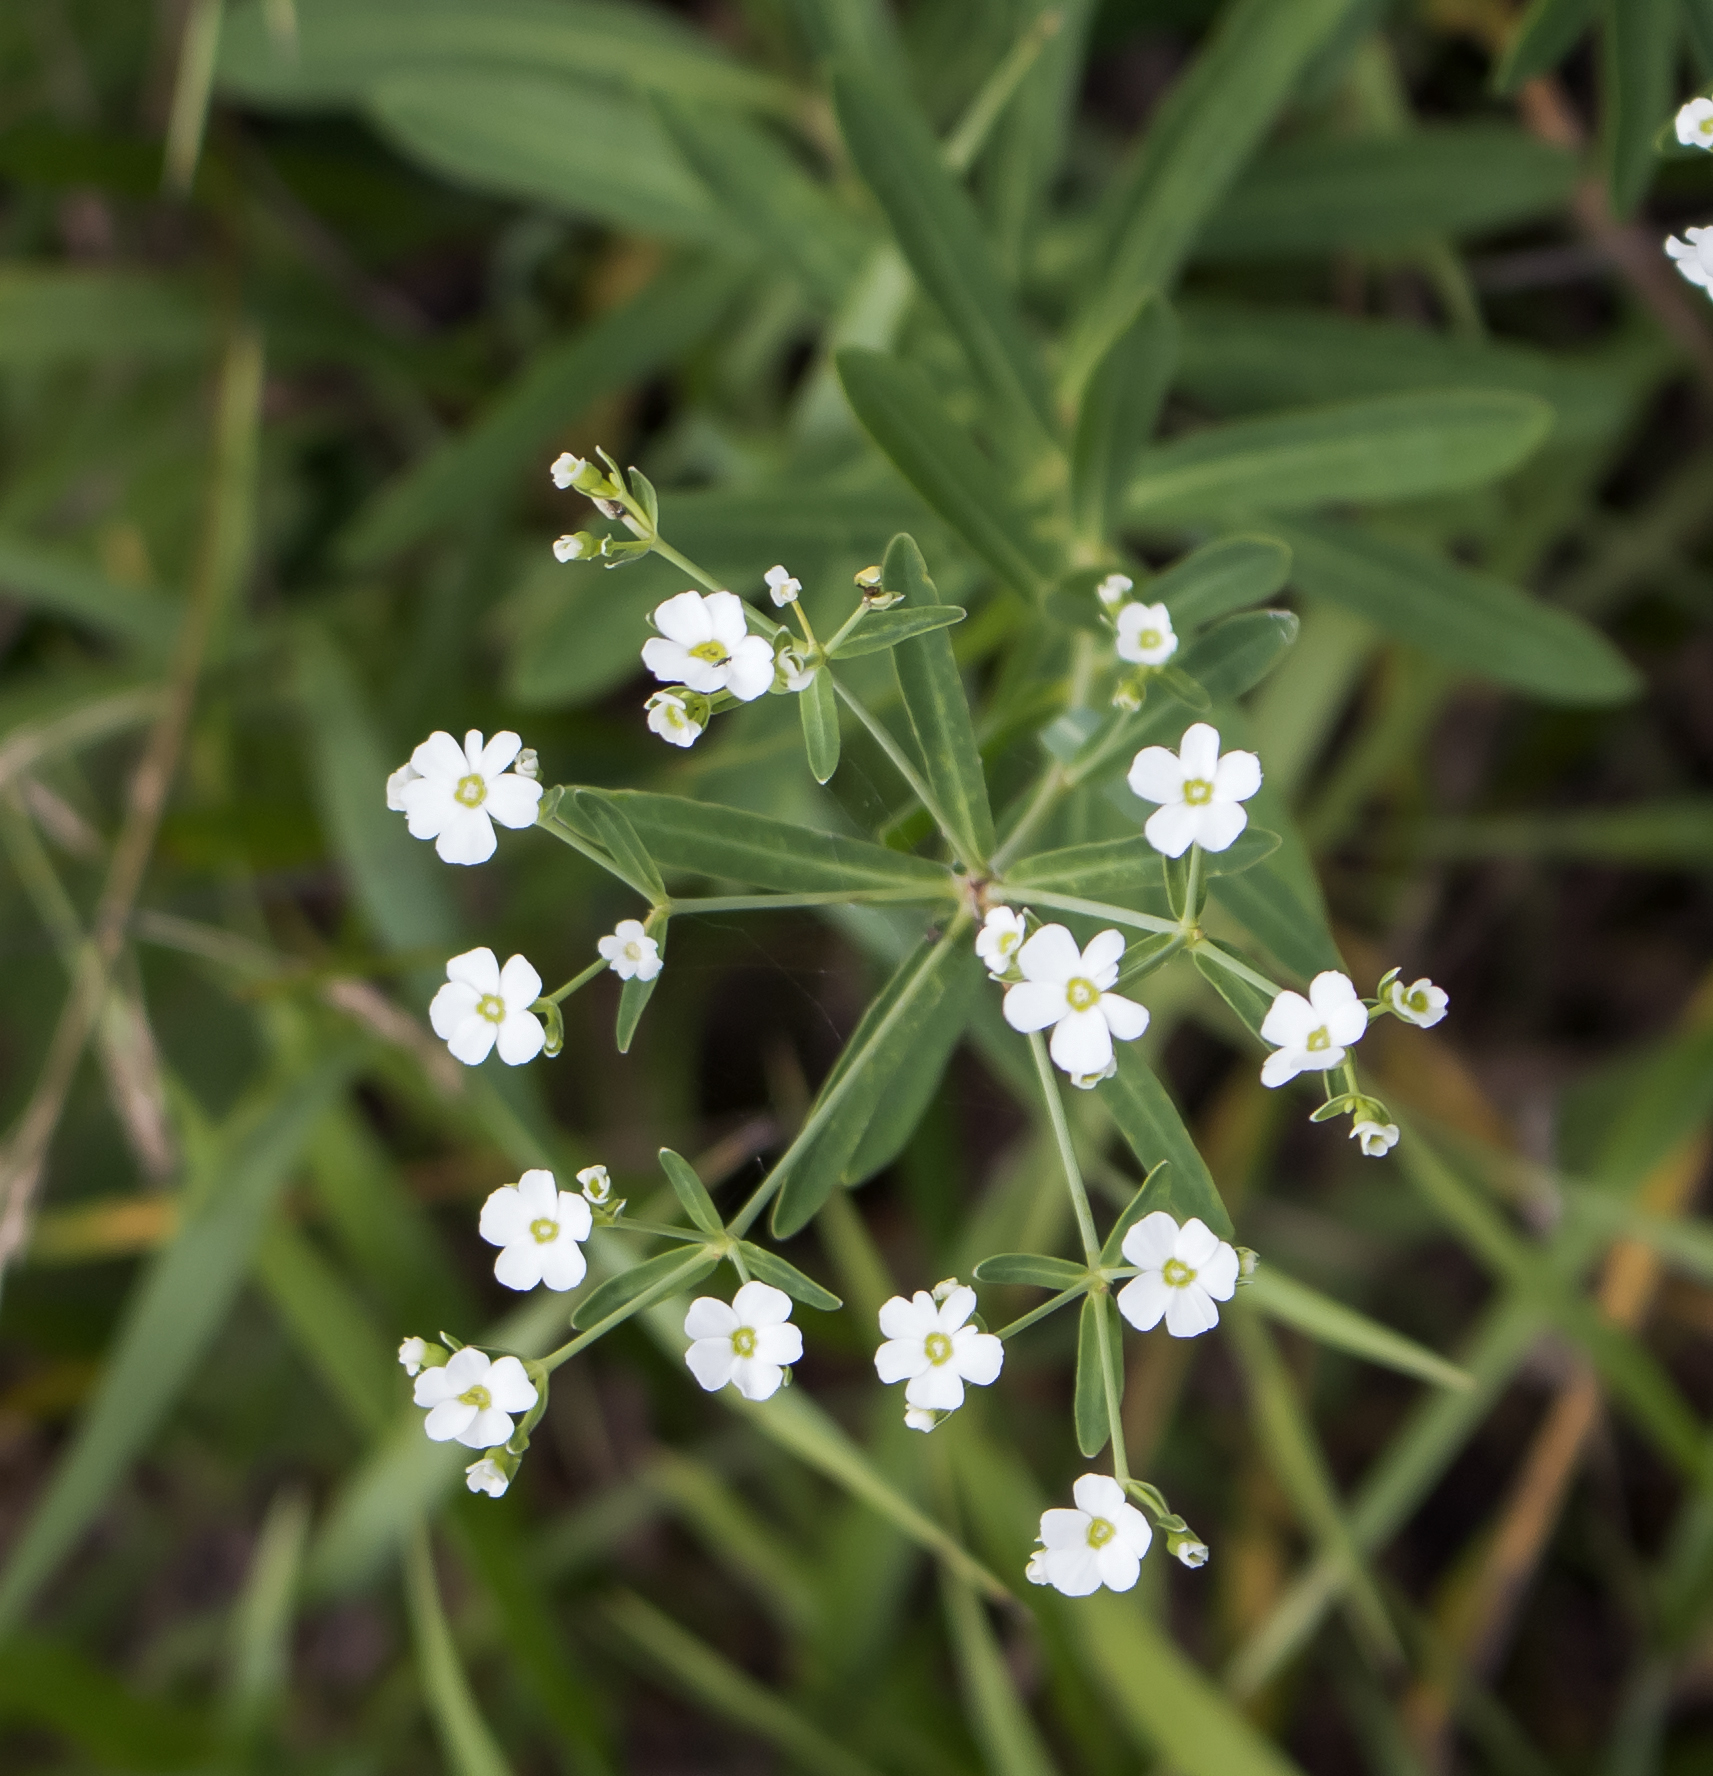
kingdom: Plantae
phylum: Tracheophyta
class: Magnoliopsida
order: Malpighiales
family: Euphorbiaceae
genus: Euphorbia
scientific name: Euphorbia corollata
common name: Flowering spurge
